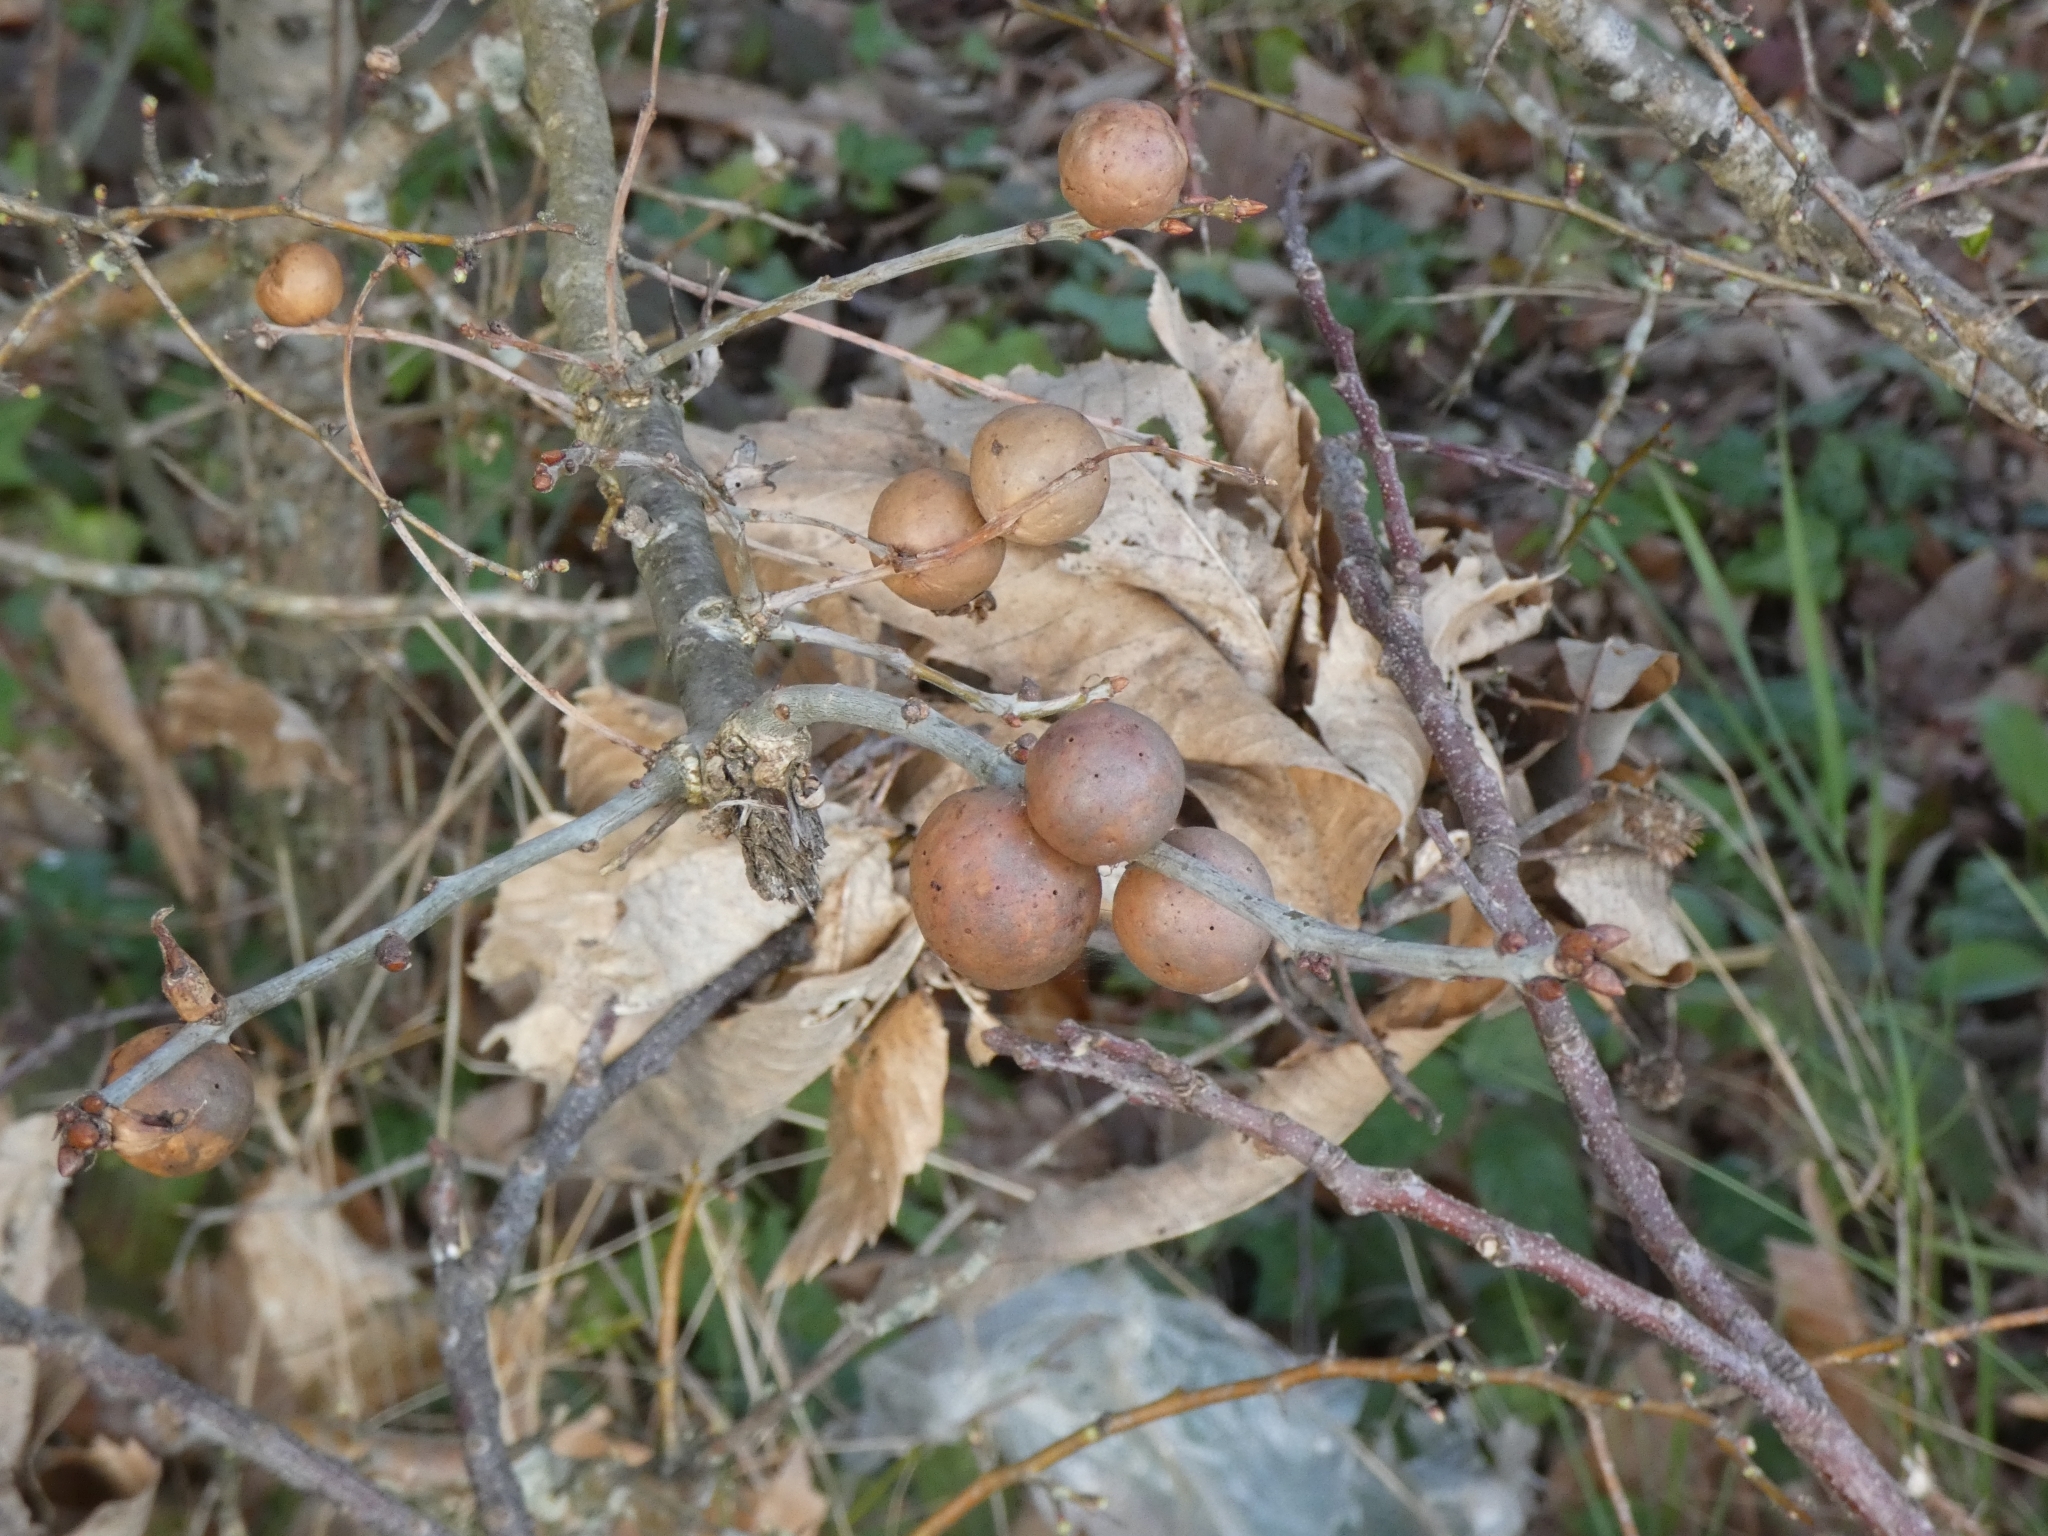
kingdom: Animalia
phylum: Arthropoda
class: Insecta
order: Hymenoptera
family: Cynipidae
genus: Andricus
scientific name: Andricus kollari
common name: Marble gall
